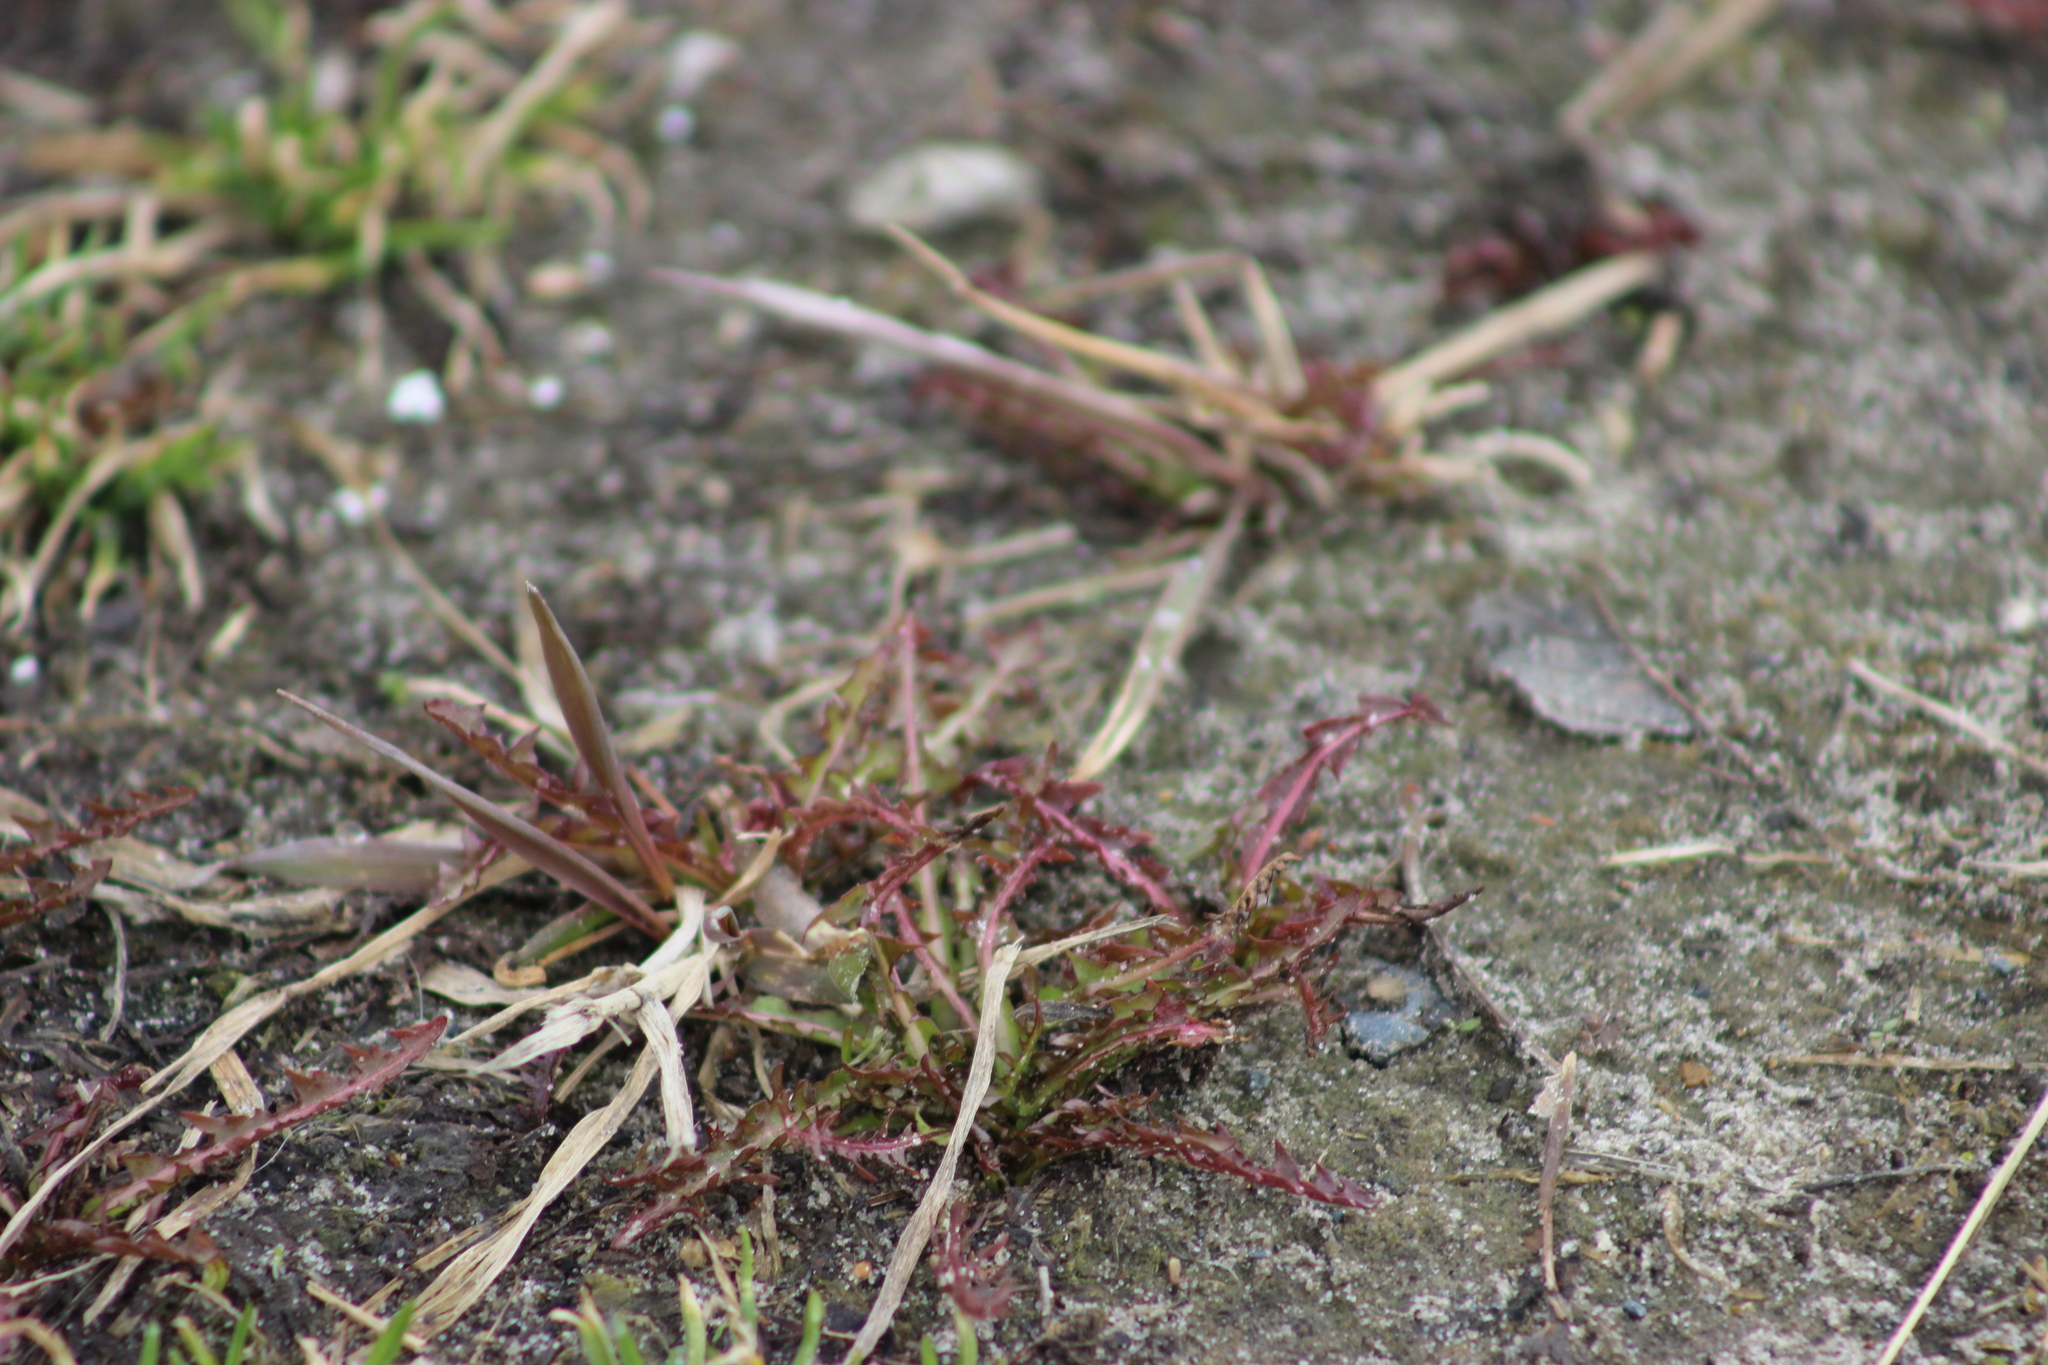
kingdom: Plantae
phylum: Tracheophyta
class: Magnoliopsida
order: Asterales
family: Asteraceae
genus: Taraxacum
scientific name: Taraxacum officinale
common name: Common dandelion
